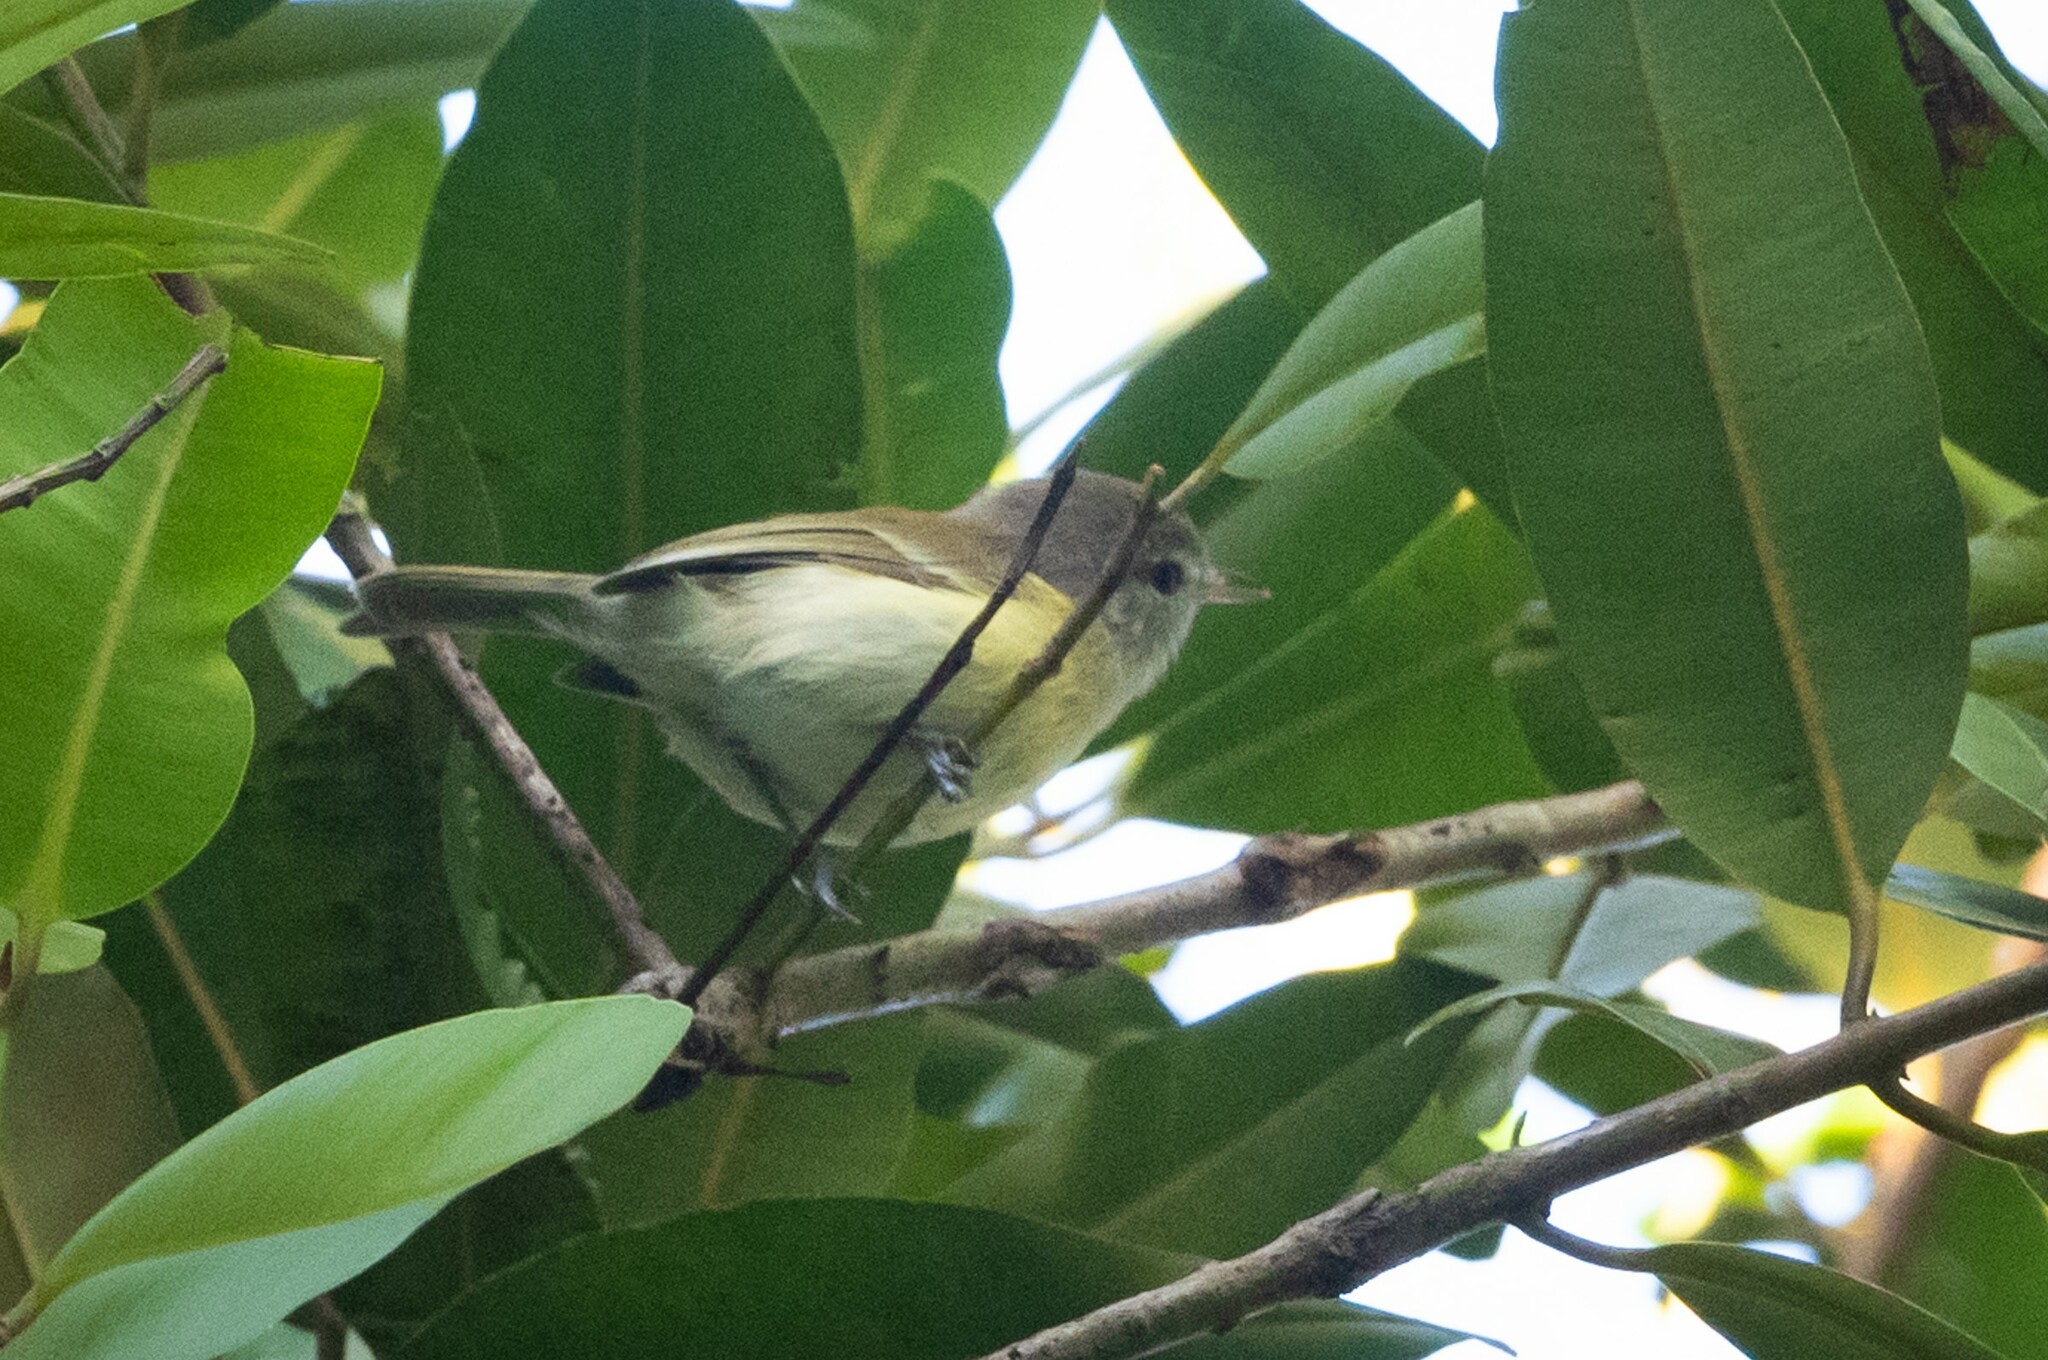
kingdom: Animalia
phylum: Chordata
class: Aves
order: Passeriformes
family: Vireonidae
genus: Vireo
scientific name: Vireo latimeri
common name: Puerto rican vireo
